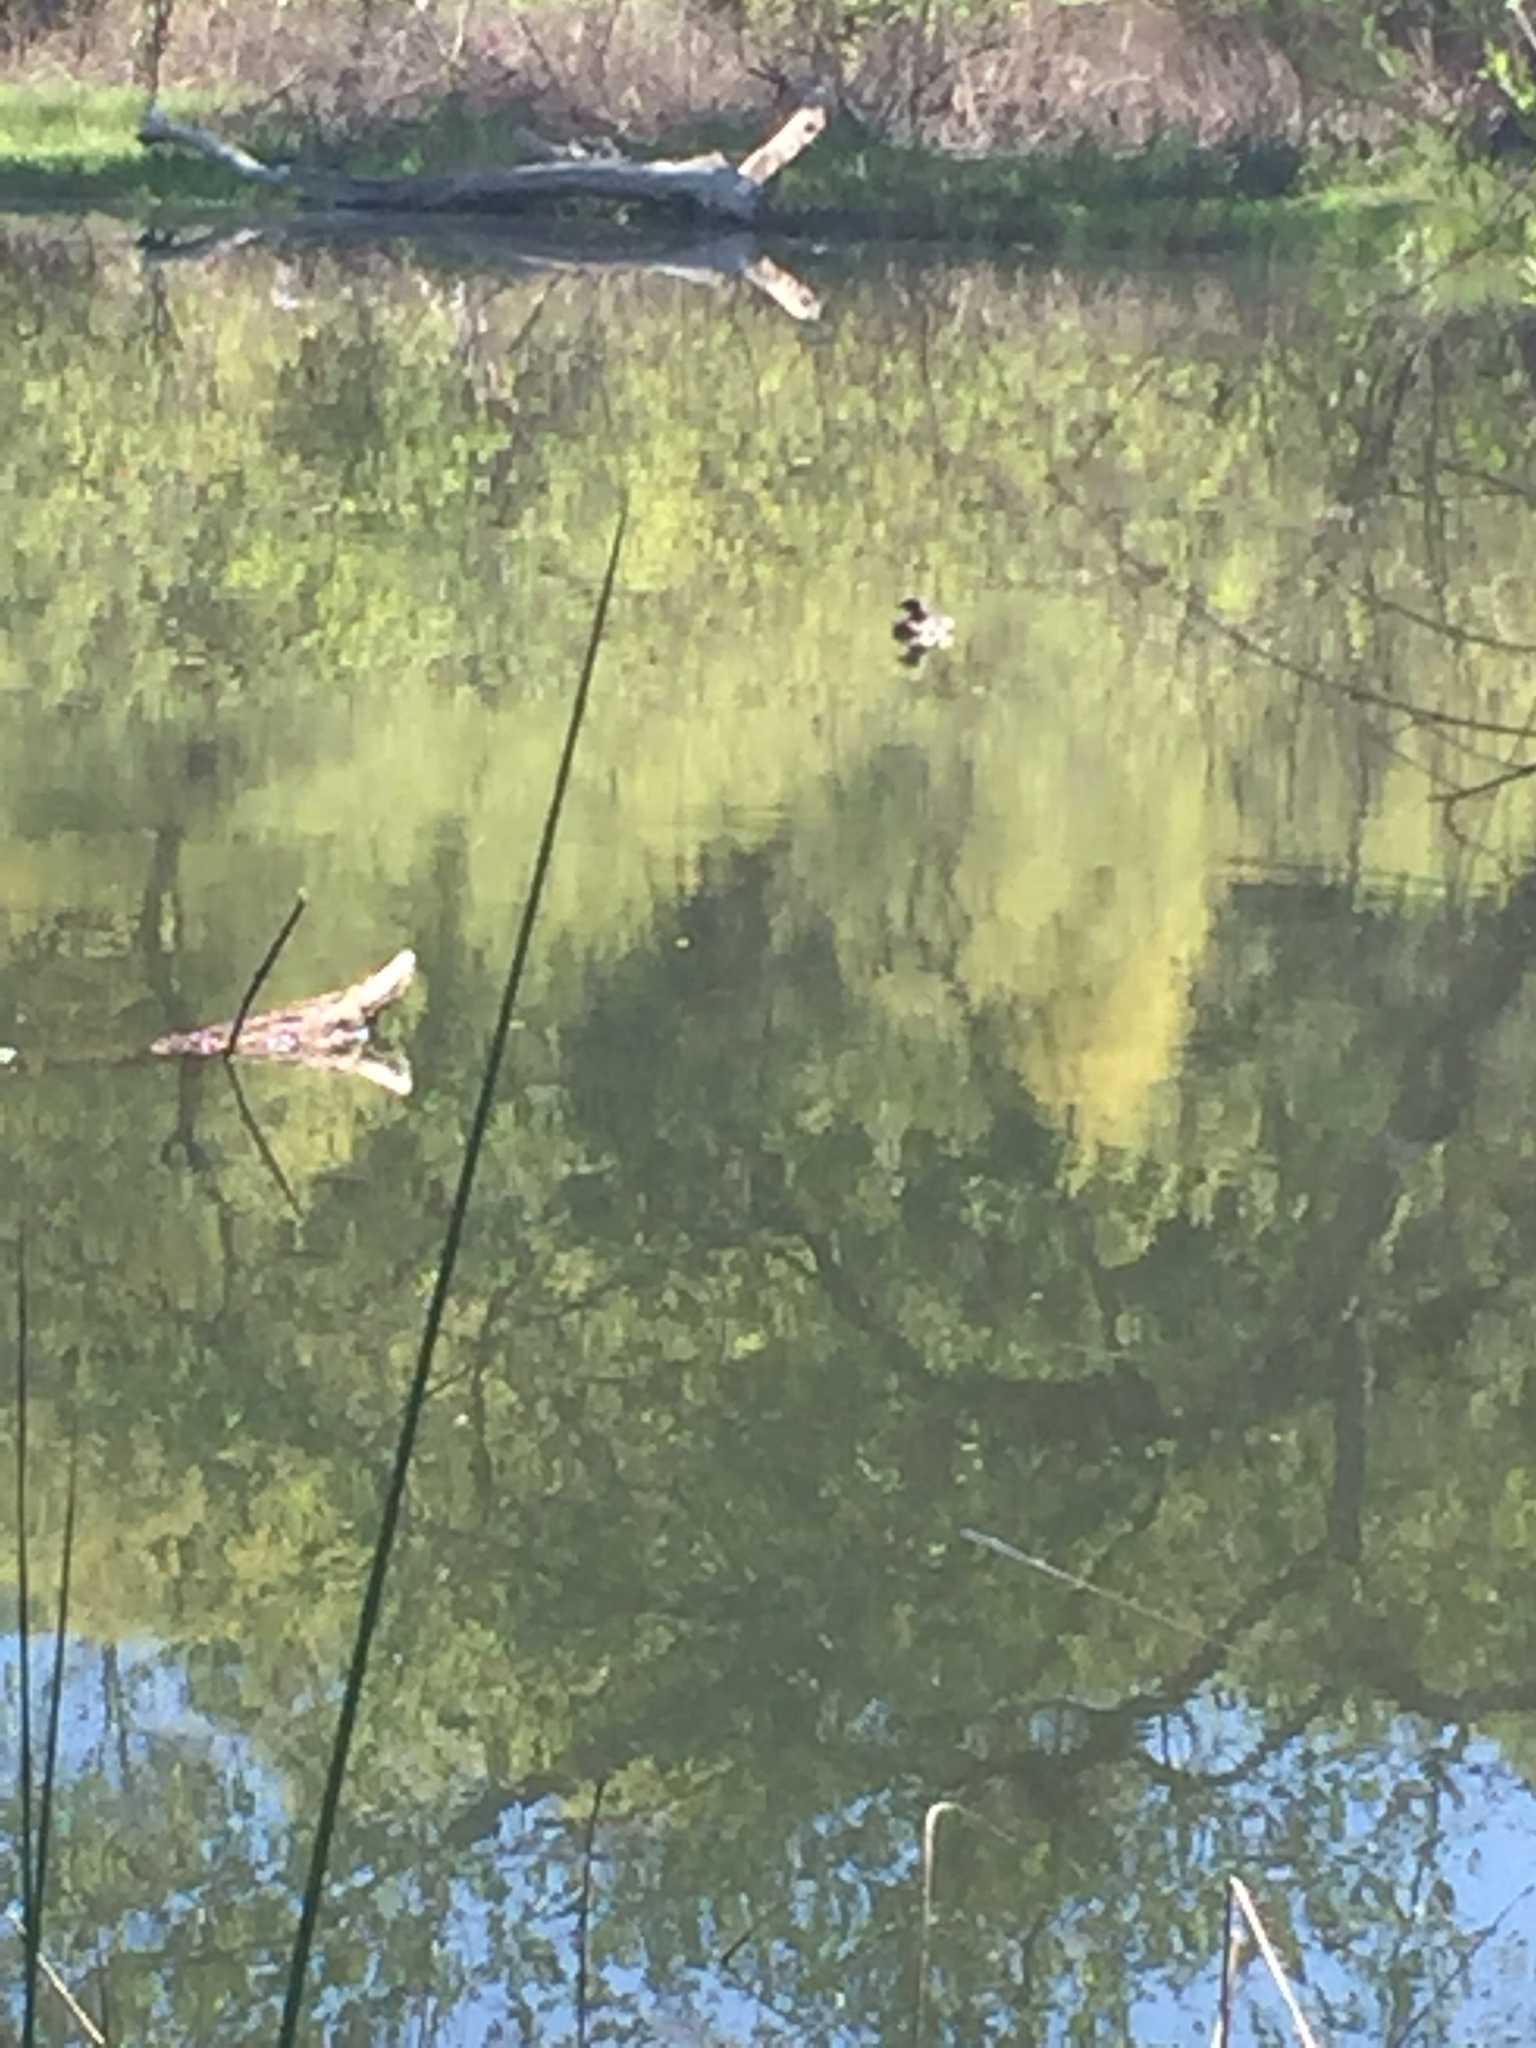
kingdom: Animalia
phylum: Chordata
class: Aves
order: Podicipediformes
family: Podicipedidae
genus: Podilymbus
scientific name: Podilymbus podiceps
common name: Pied-billed grebe
